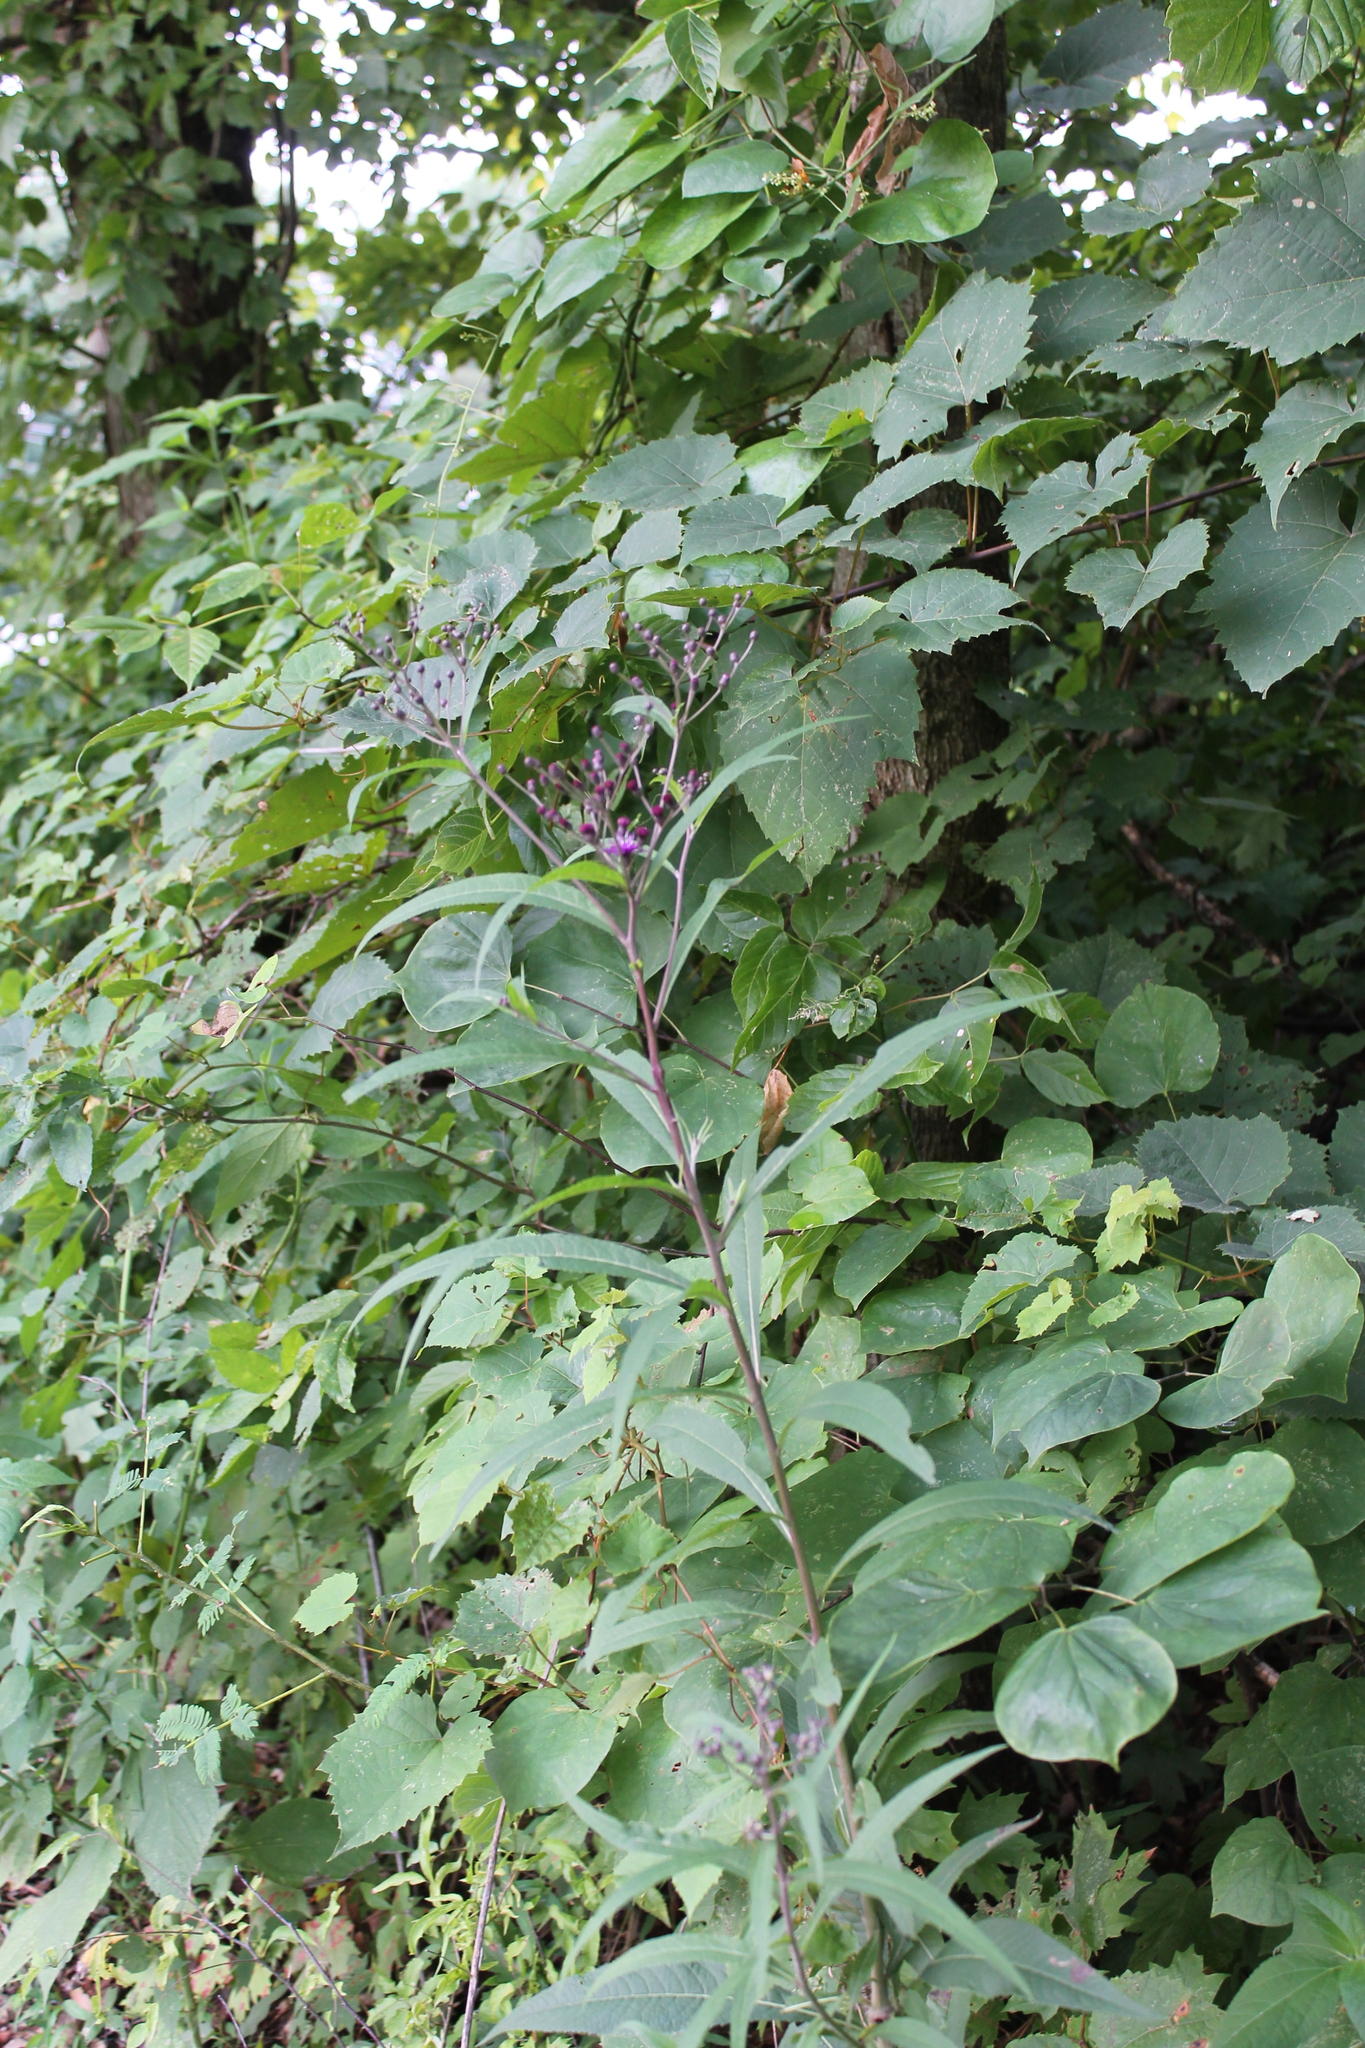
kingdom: Plantae
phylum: Tracheophyta
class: Magnoliopsida
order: Asterales
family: Asteraceae
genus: Vernonia
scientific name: Vernonia gigantea
